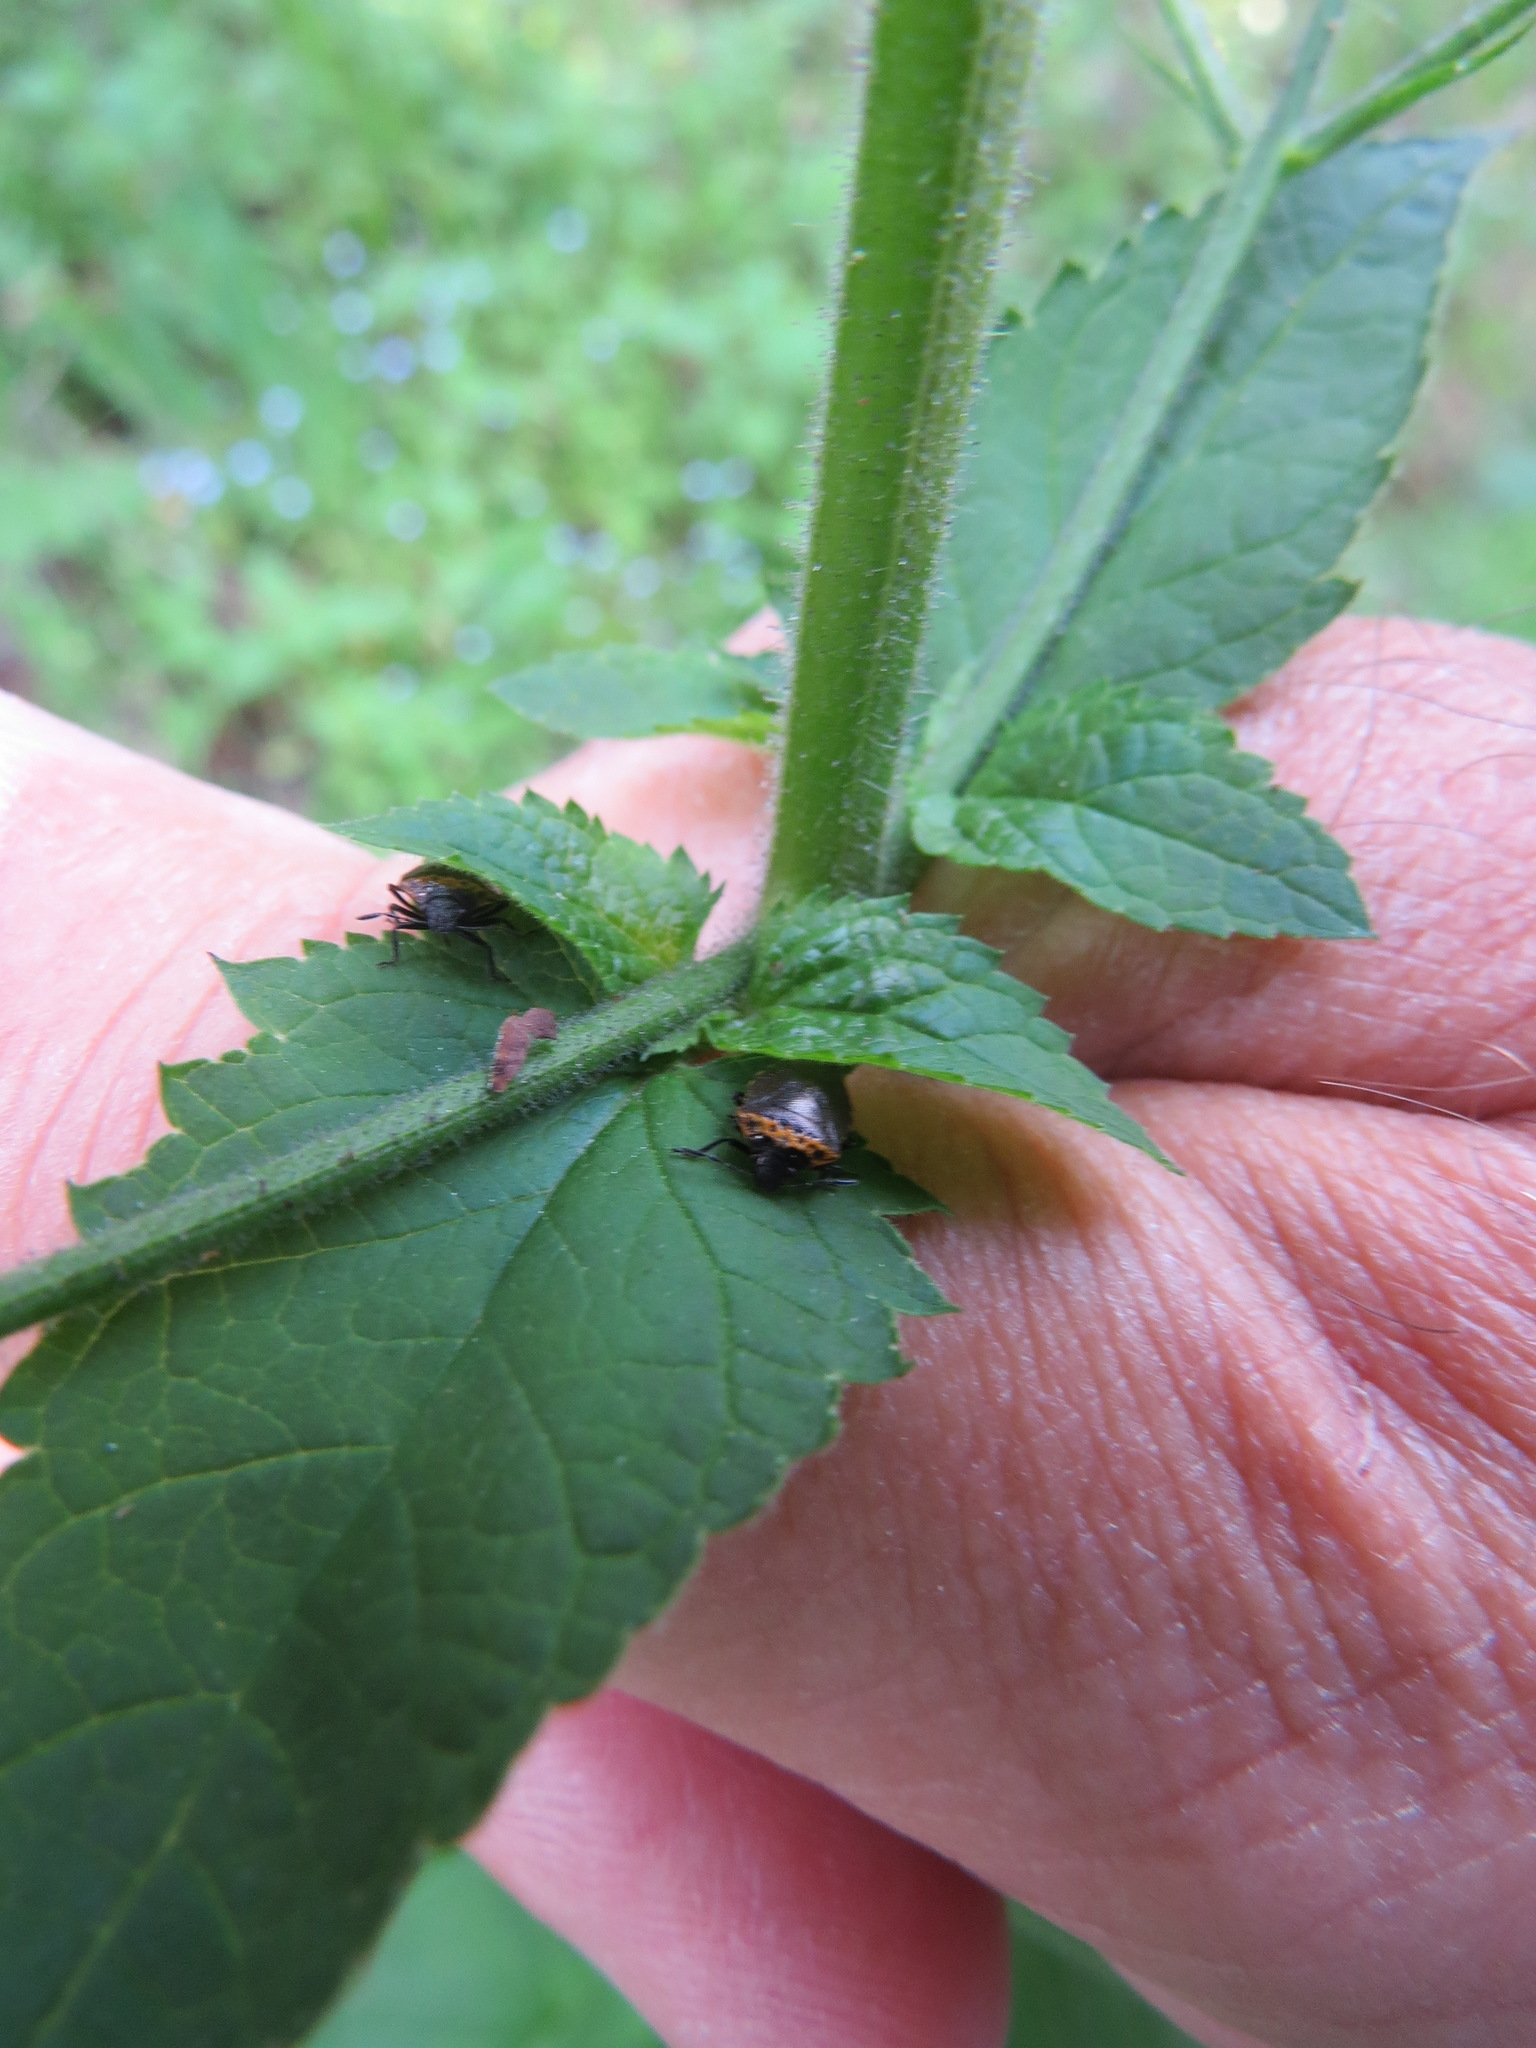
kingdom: Animalia
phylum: Arthropoda
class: Insecta
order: Hemiptera
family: Pentatomidae
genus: Cosmopepla
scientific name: Cosmopepla uhleri
